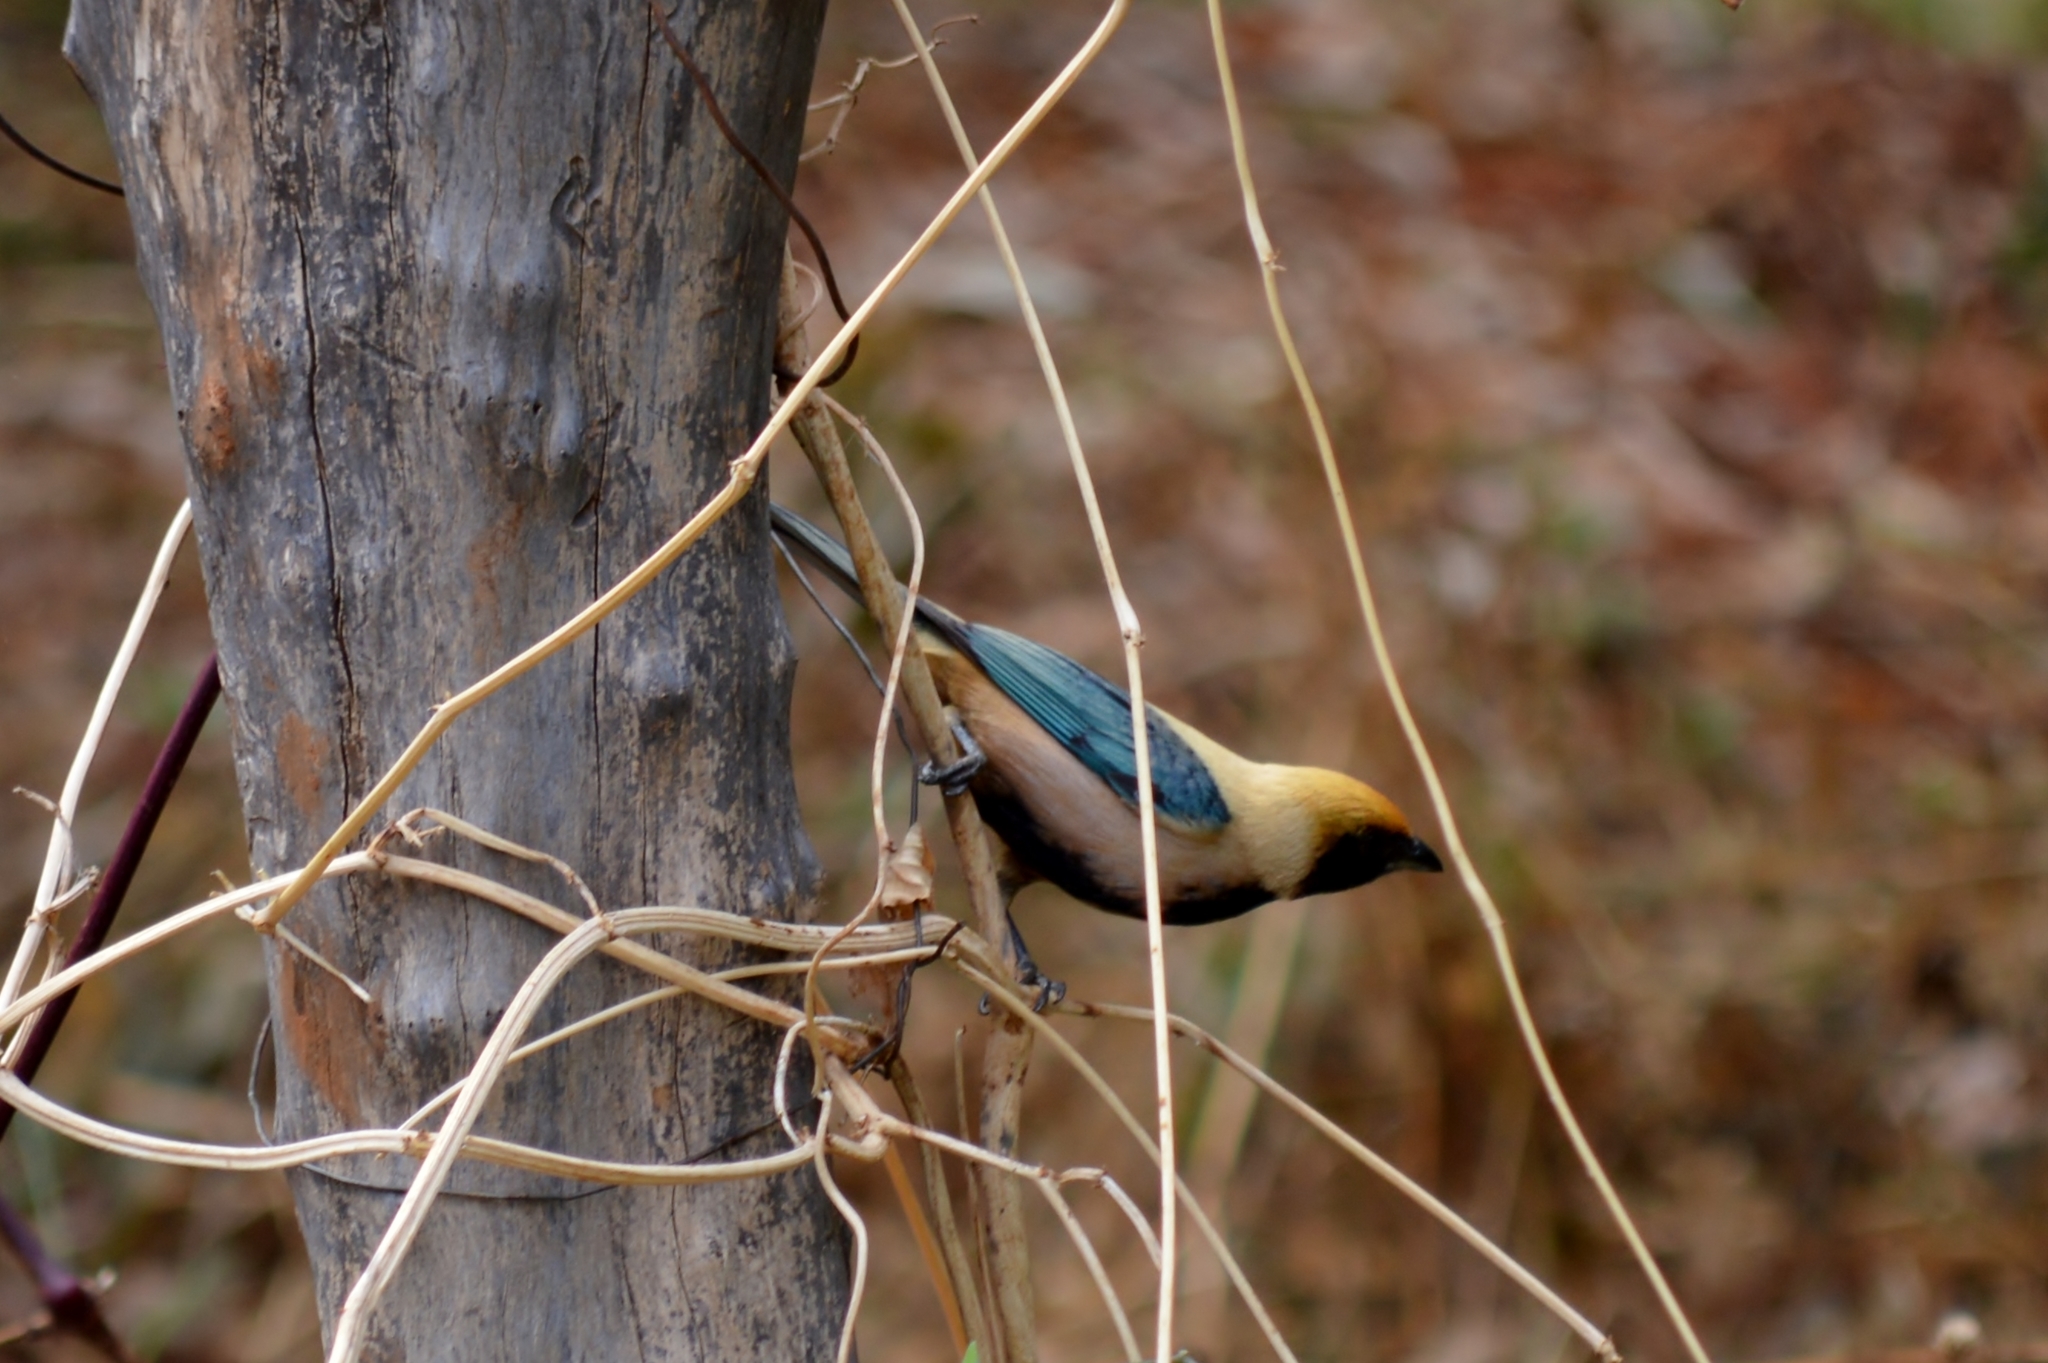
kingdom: Animalia
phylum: Chordata
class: Aves
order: Passeriformes
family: Thraupidae
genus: Stilpnia
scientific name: Stilpnia cayana
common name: Burnished-buff tanager
